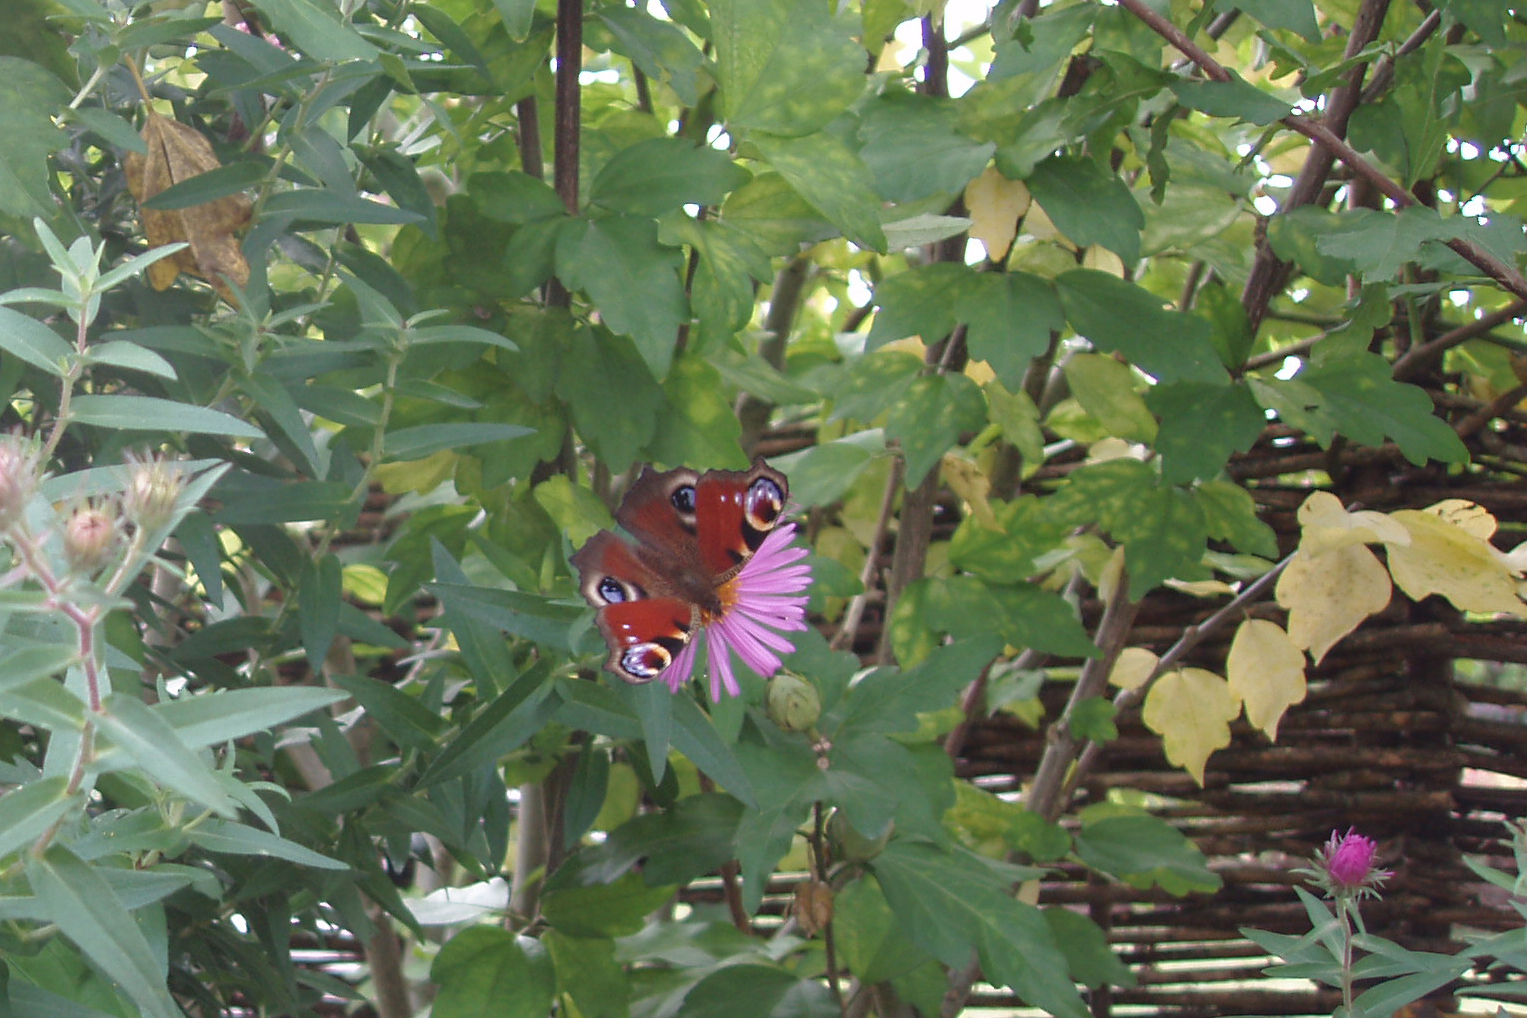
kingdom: Animalia
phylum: Arthropoda
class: Insecta
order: Lepidoptera
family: Nymphalidae
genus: Aglais
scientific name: Aglais io
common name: Peacock
